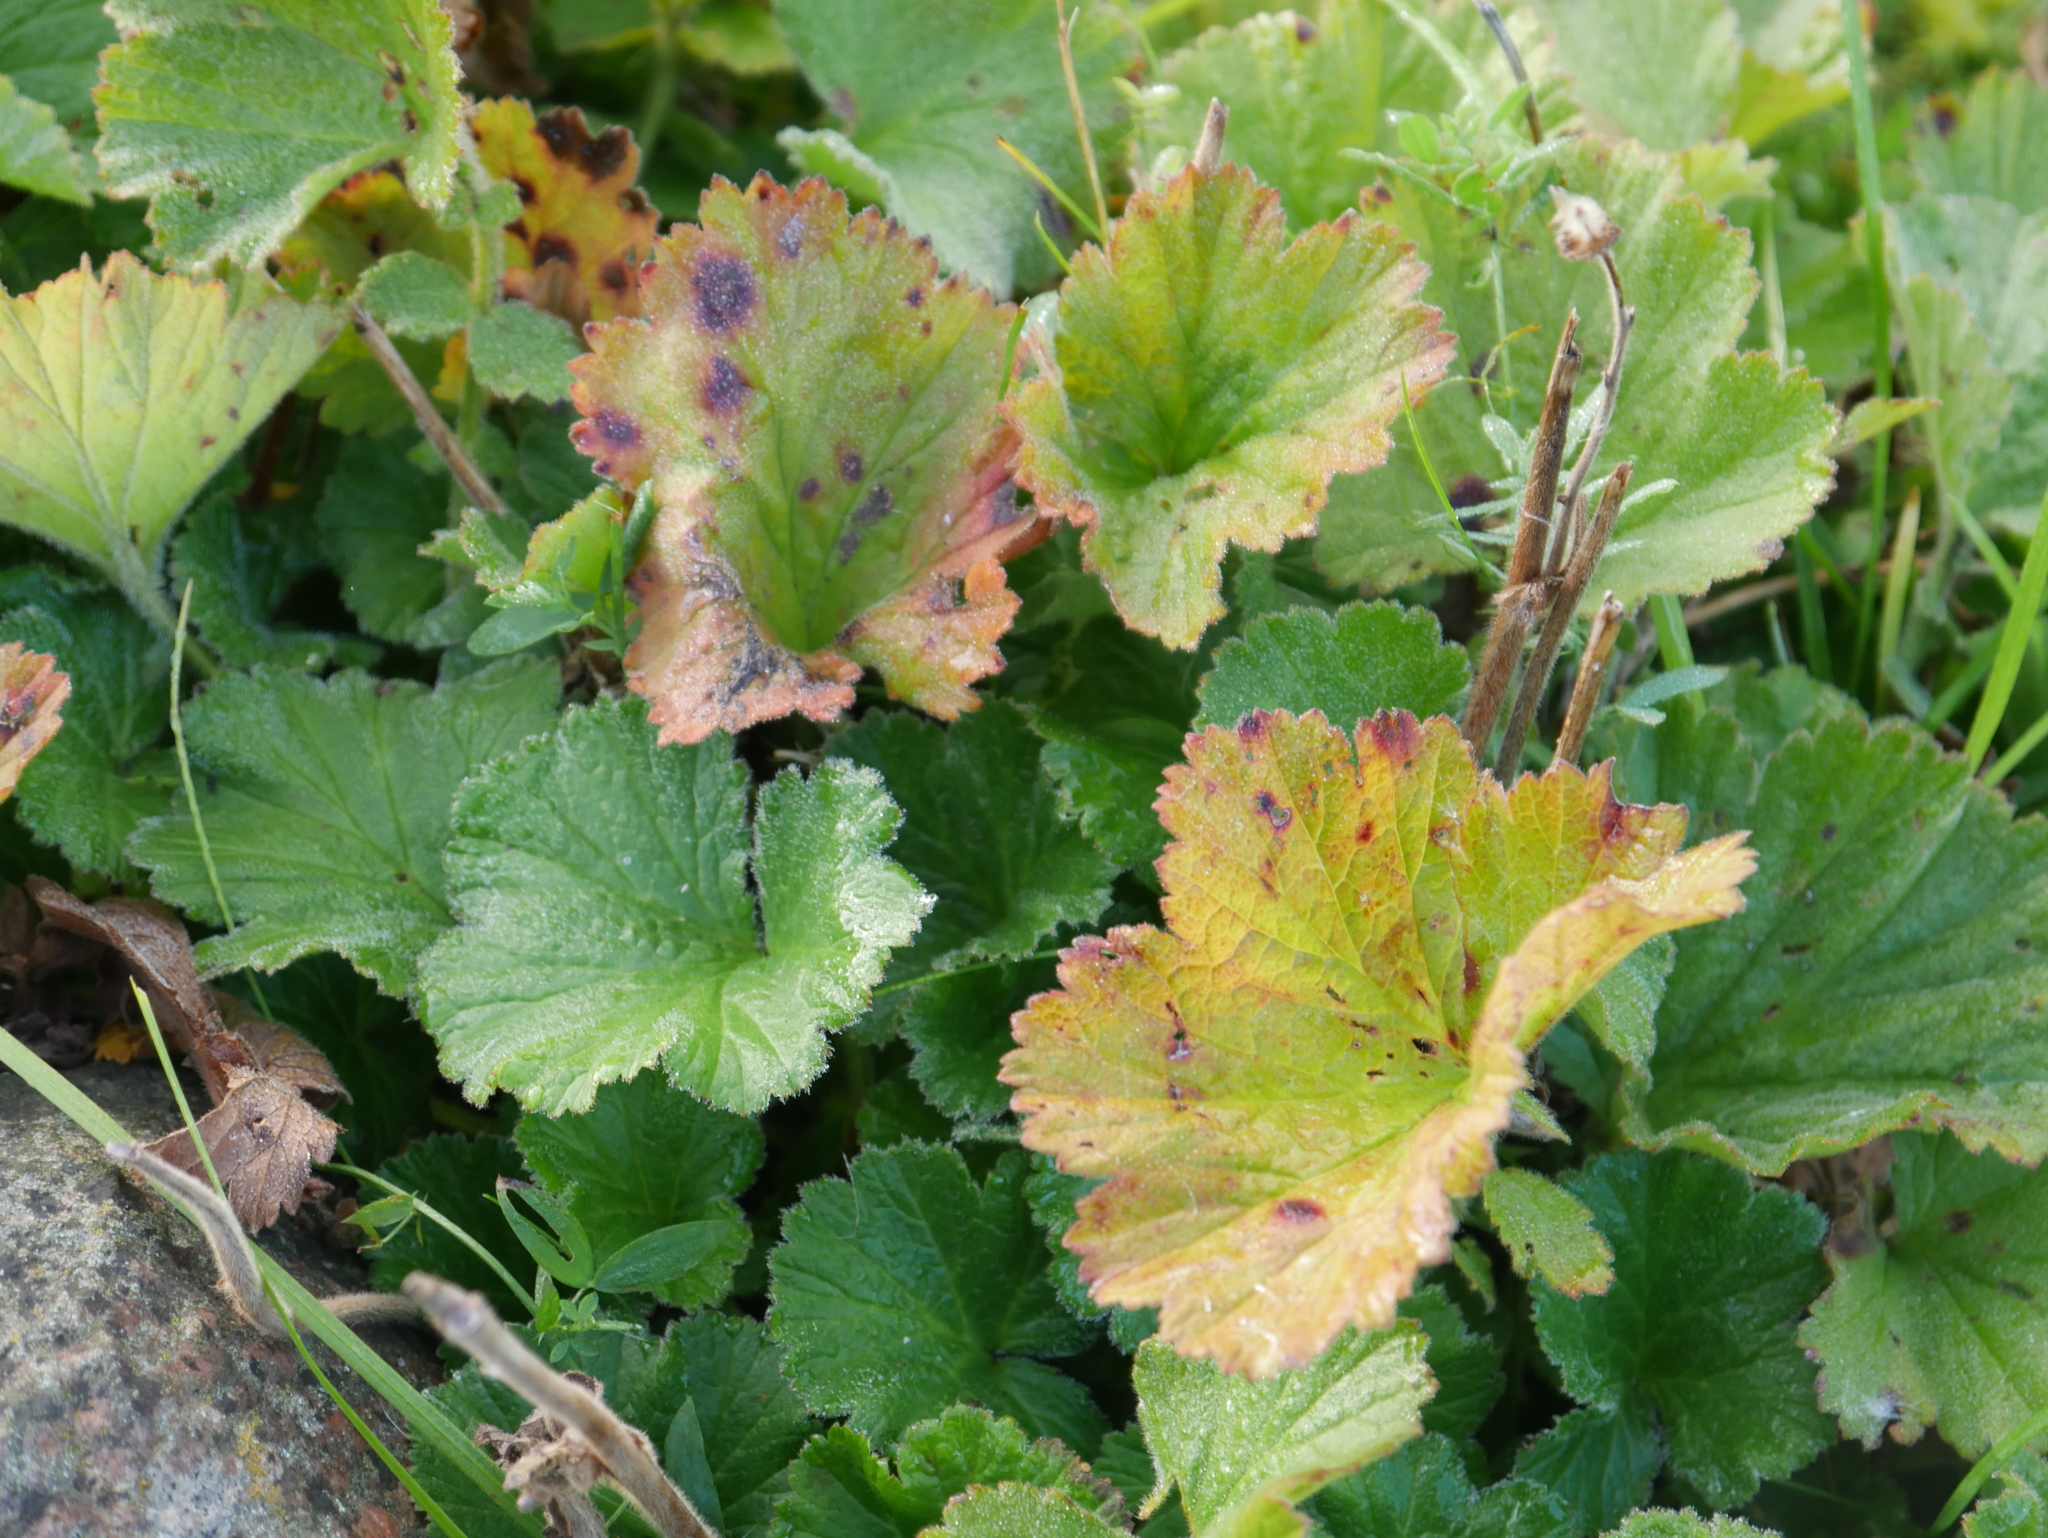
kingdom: Plantae
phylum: Tracheophyta
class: Magnoliopsida
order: Rosales
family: Rosaceae
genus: Geum
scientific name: Geum rivale
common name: Water avens
